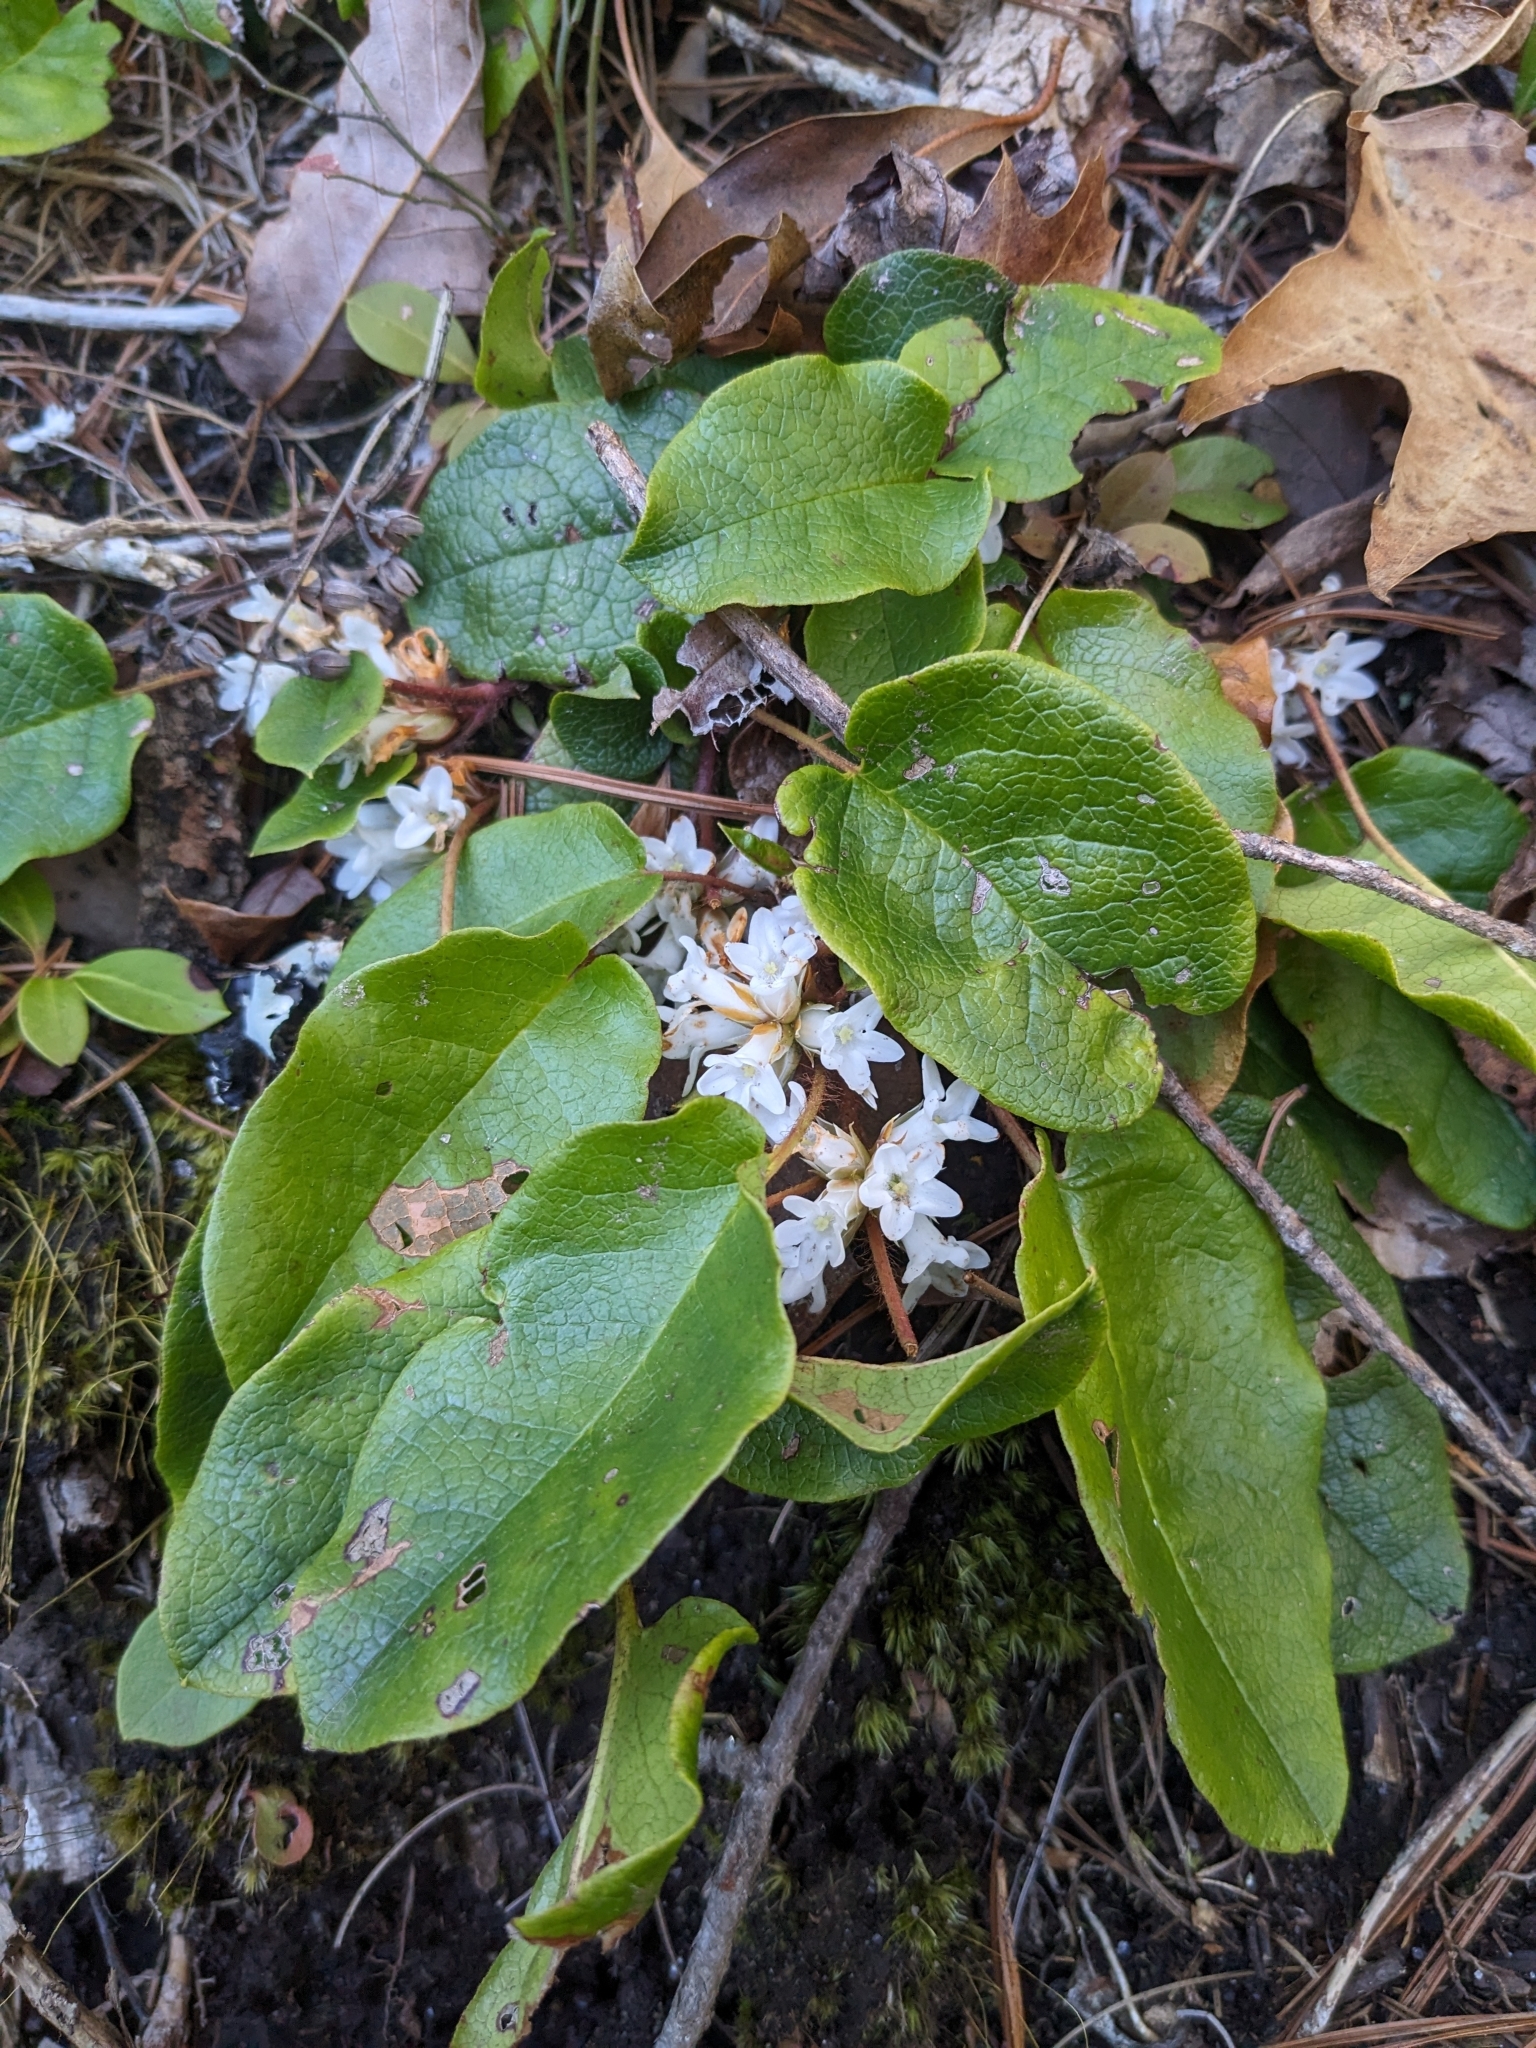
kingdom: Plantae
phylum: Tracheophyta
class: Magnoliopsida
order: Ericales
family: Ericaceae
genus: Epigaea
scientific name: Epigaea repens
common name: Gravelroot
